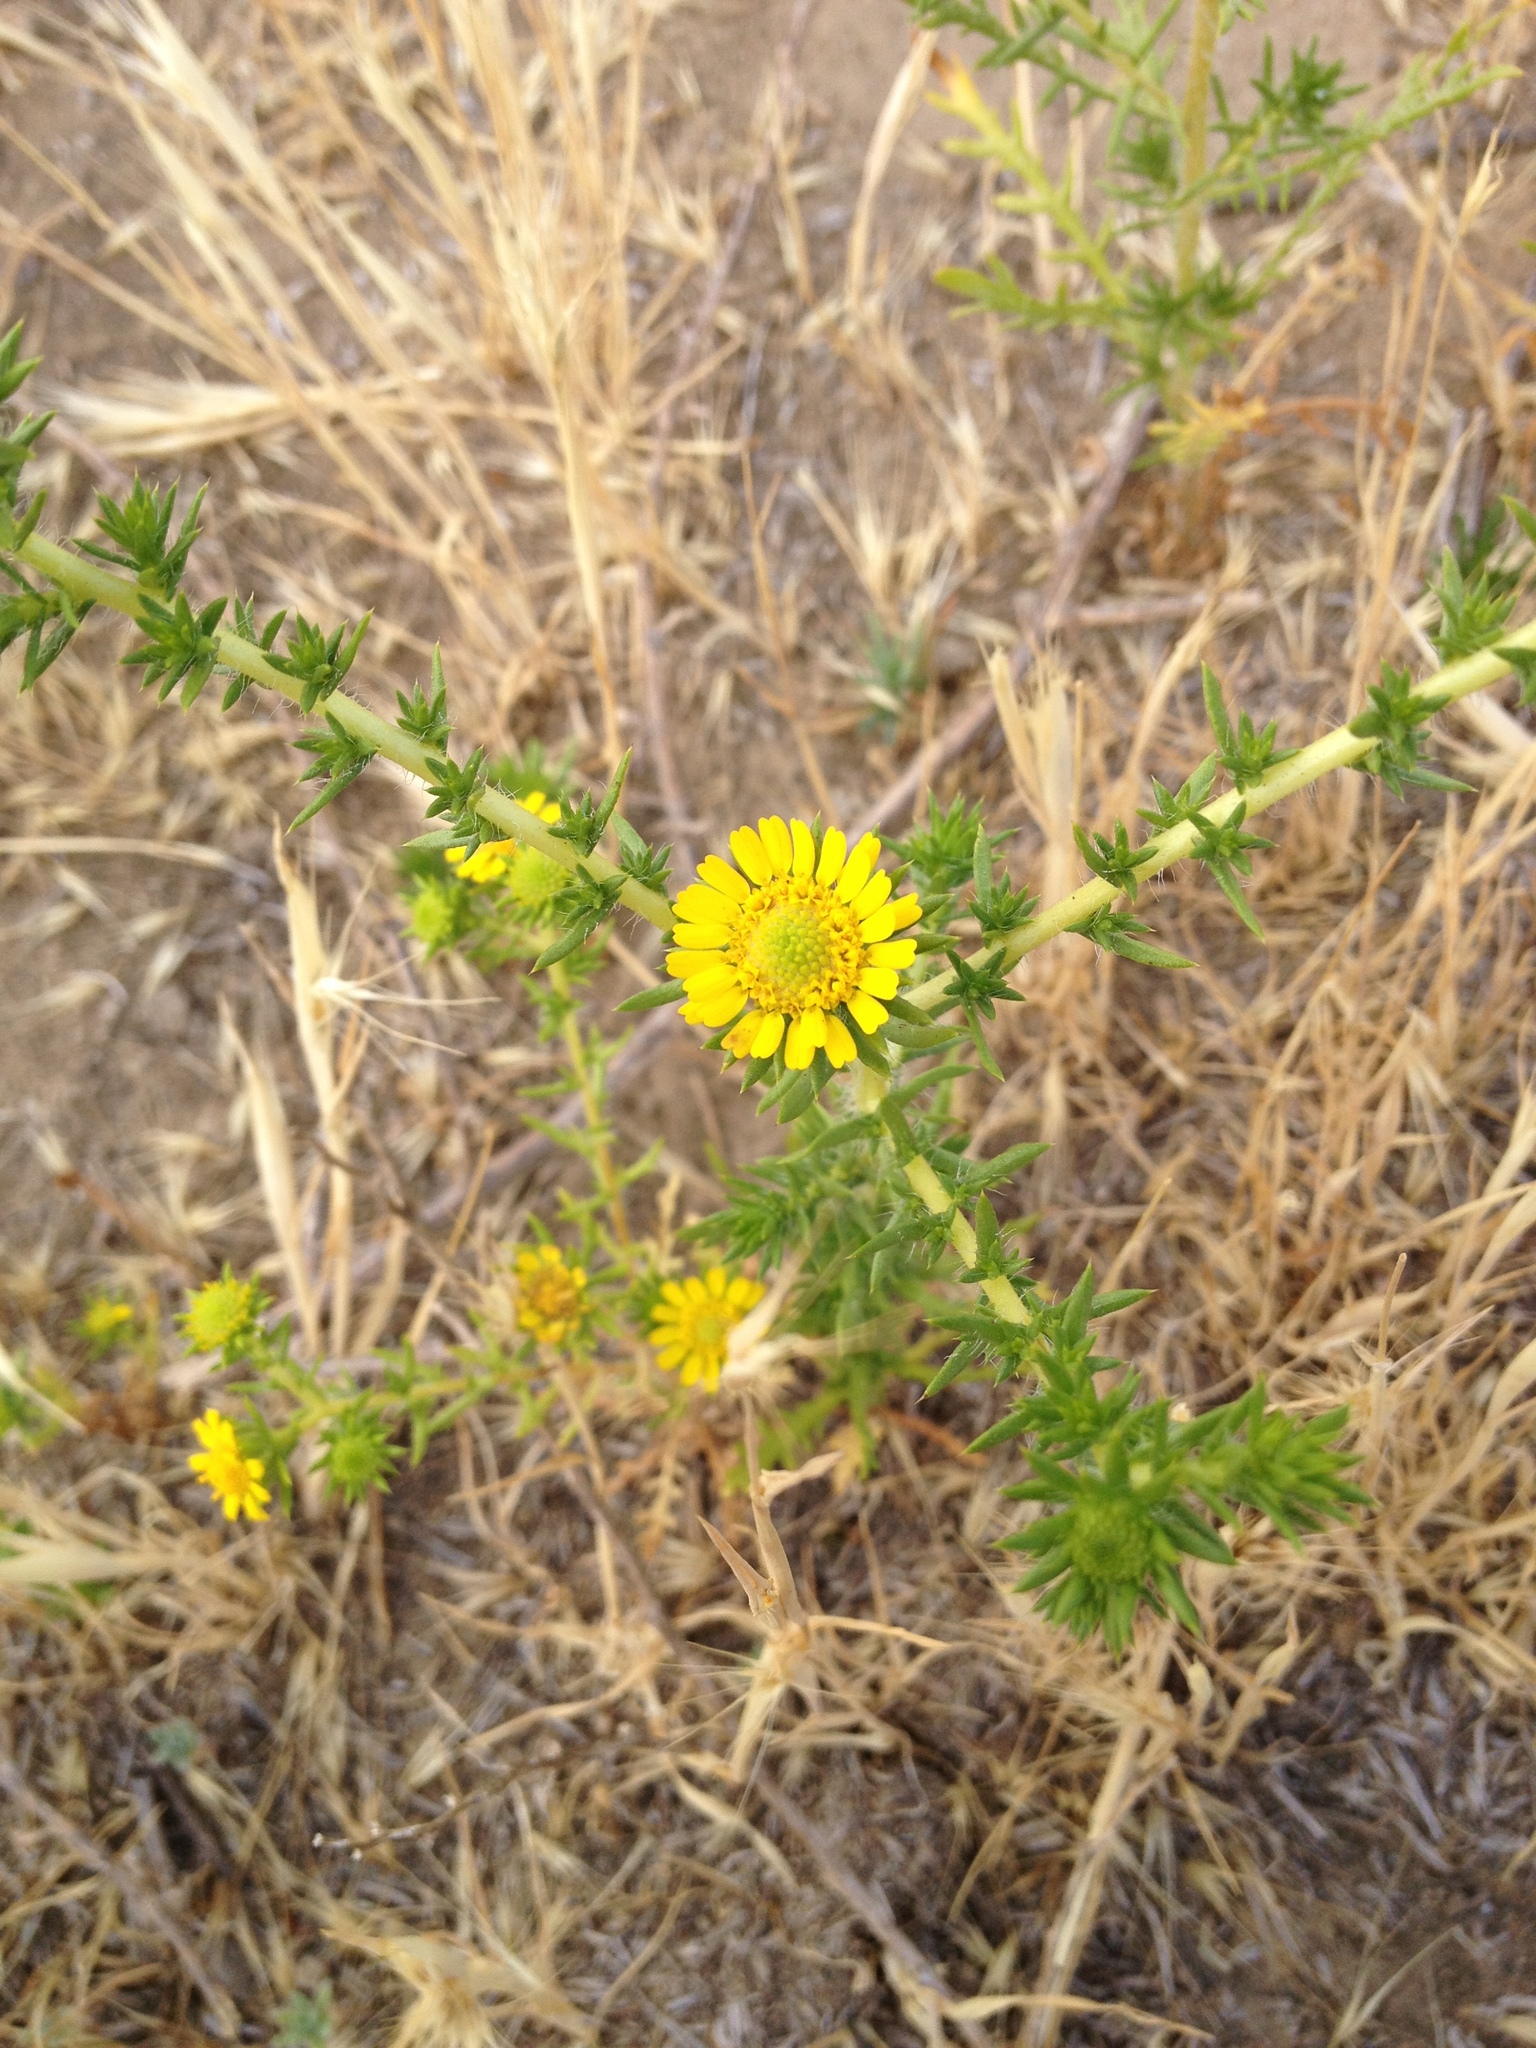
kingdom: Plantae
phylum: Tracheophyta
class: Magnoliopsida
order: Asterales
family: Asteraceae
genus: Centromadia
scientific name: Centromadia pungens
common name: Common spikeweed
